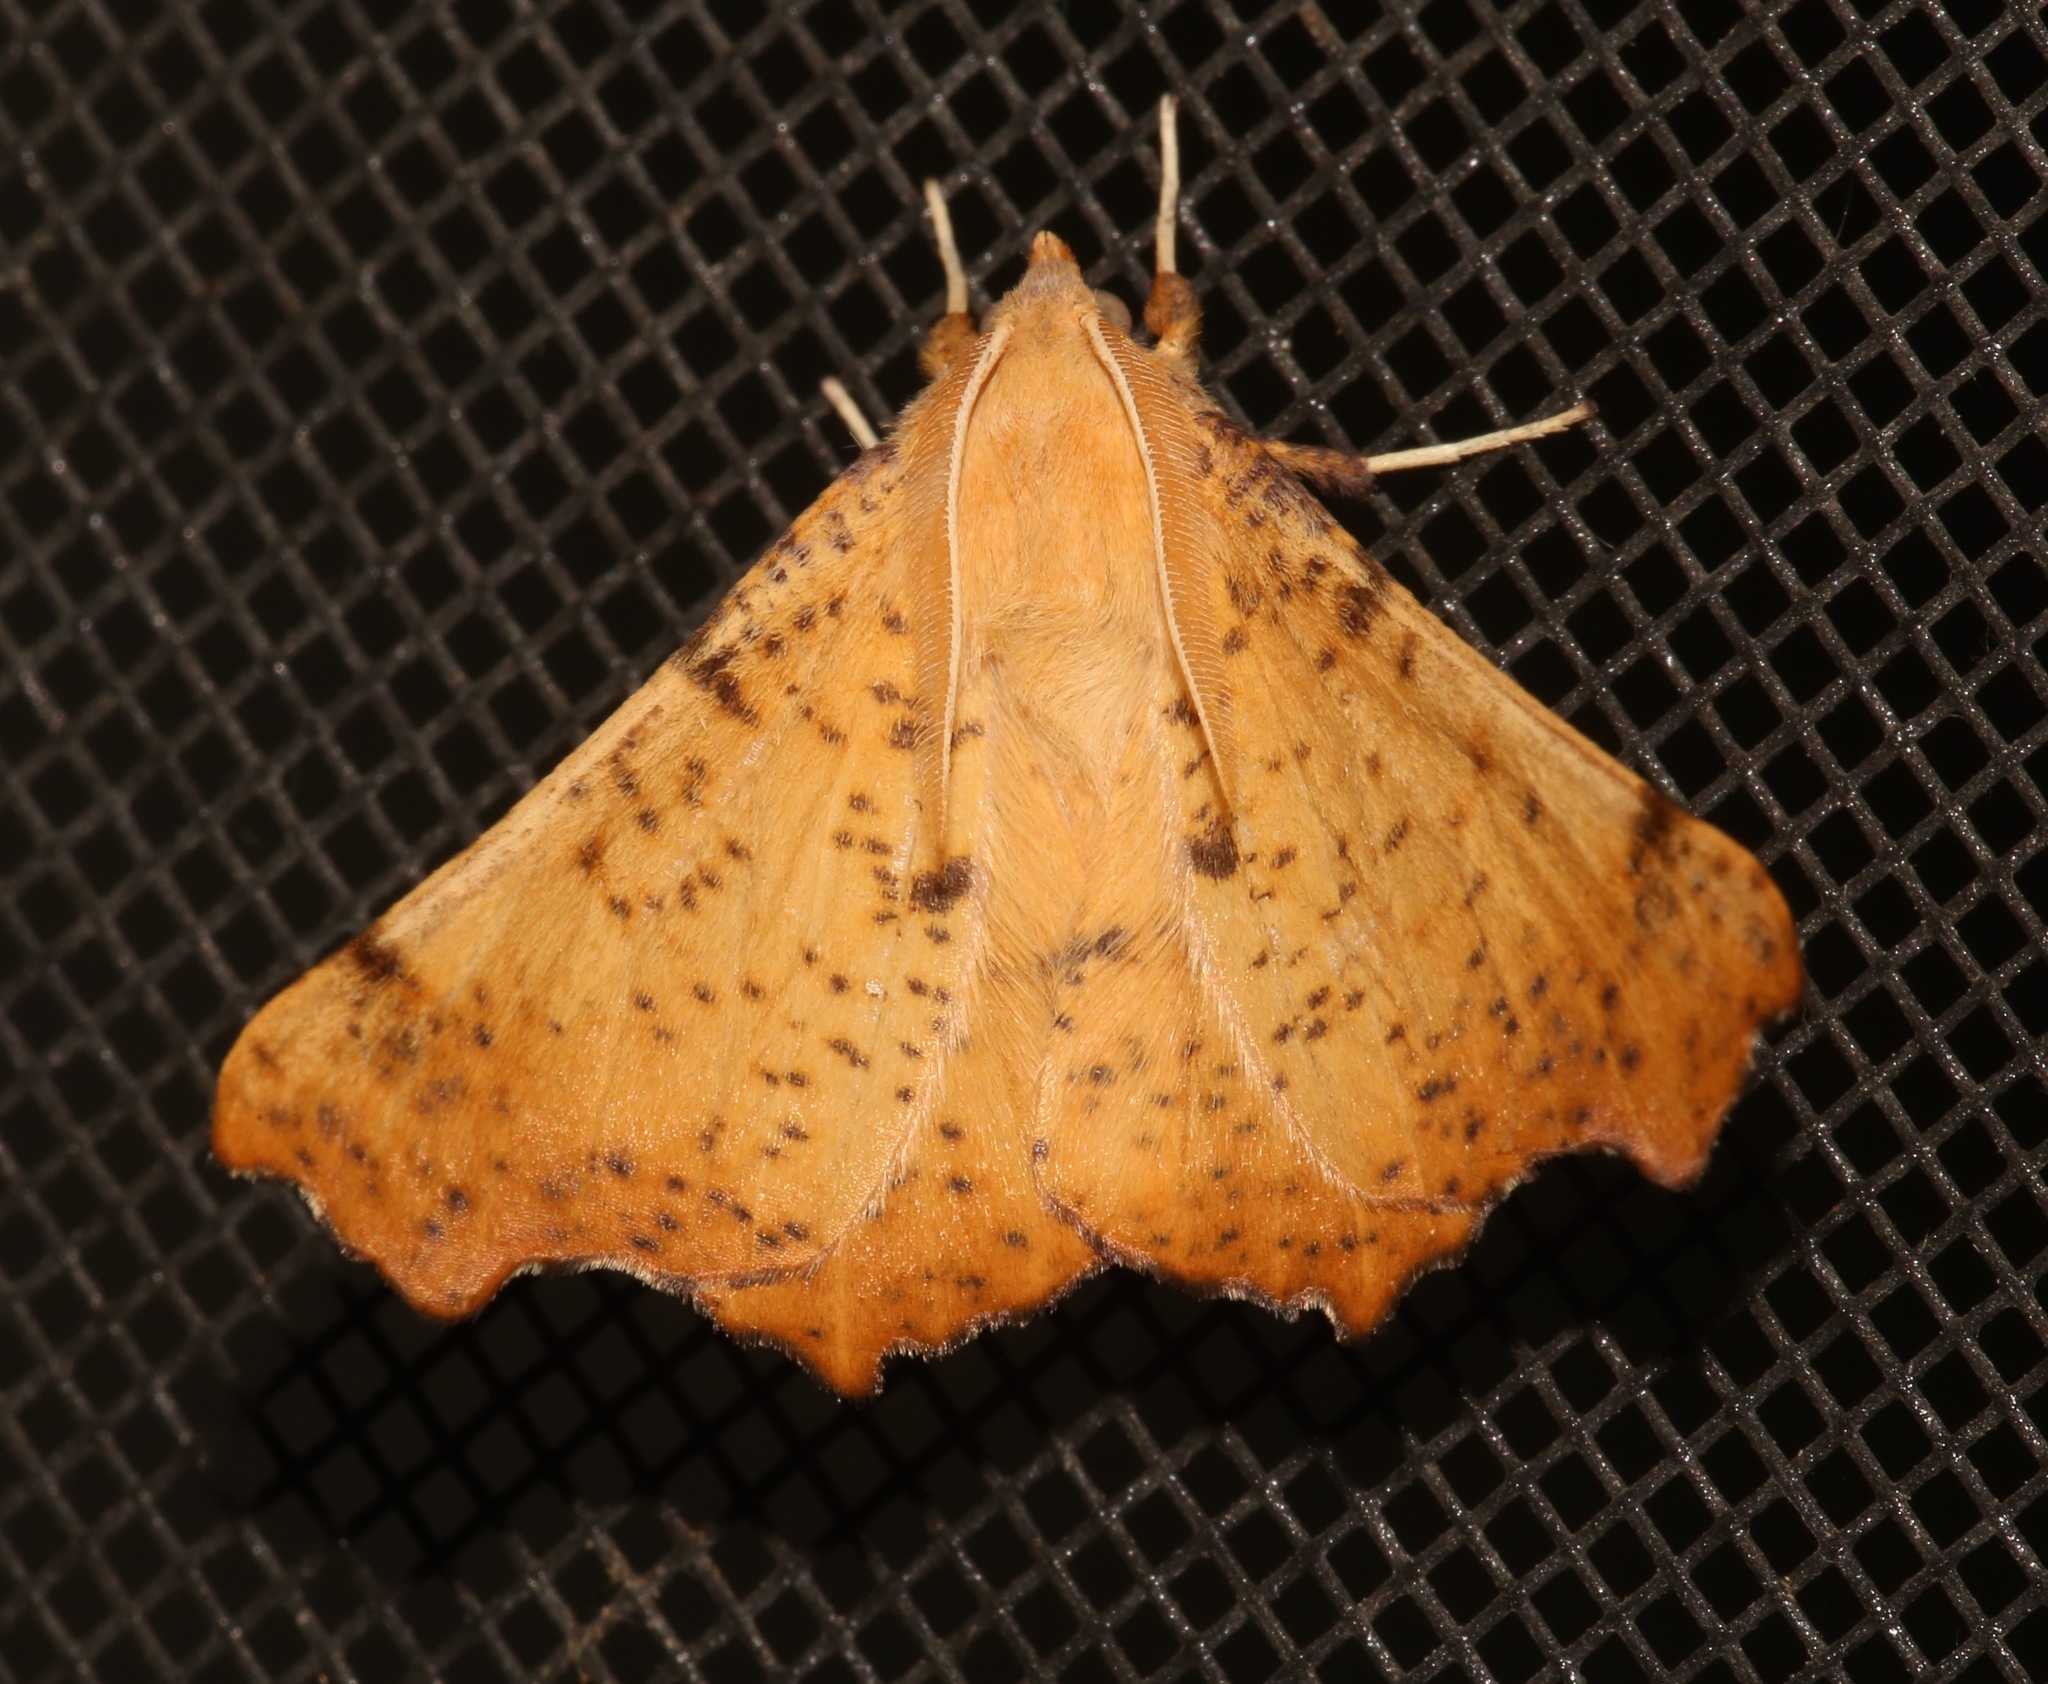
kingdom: Animalia
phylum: Arthropoda
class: Insecta
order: Lepidoptera
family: Geometridae
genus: Ennomos
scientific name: Ennomos magnaria
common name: Maple spanworm
